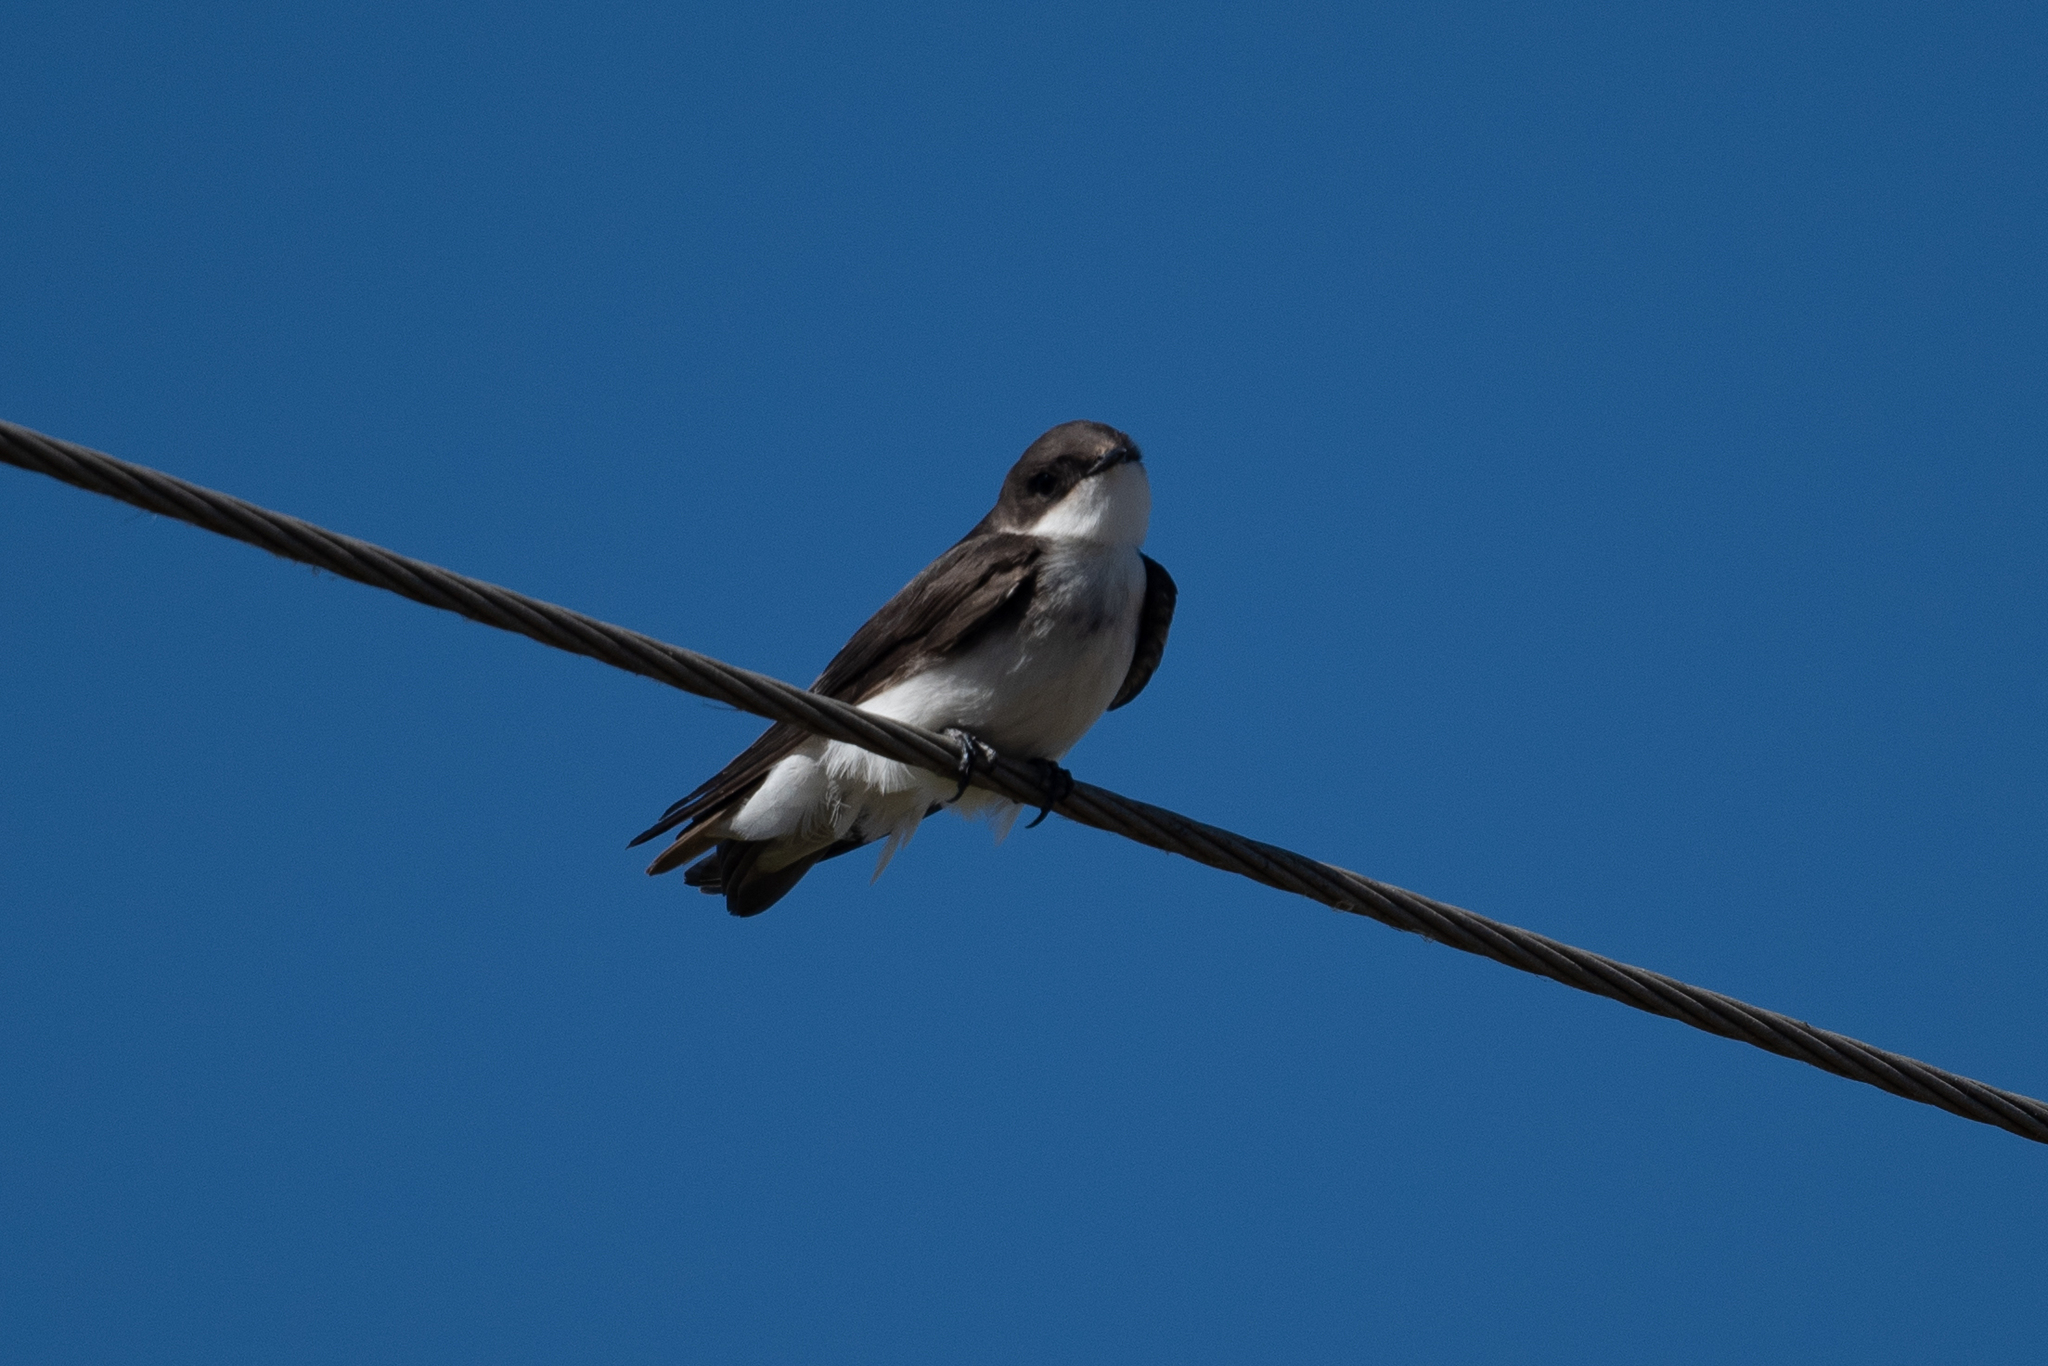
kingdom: Animalia
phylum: Chordata
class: Aves
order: Passeriformes
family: Hirundinidae
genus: Tachycineta
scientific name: Tachycineta bicolor
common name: Tree swallow
